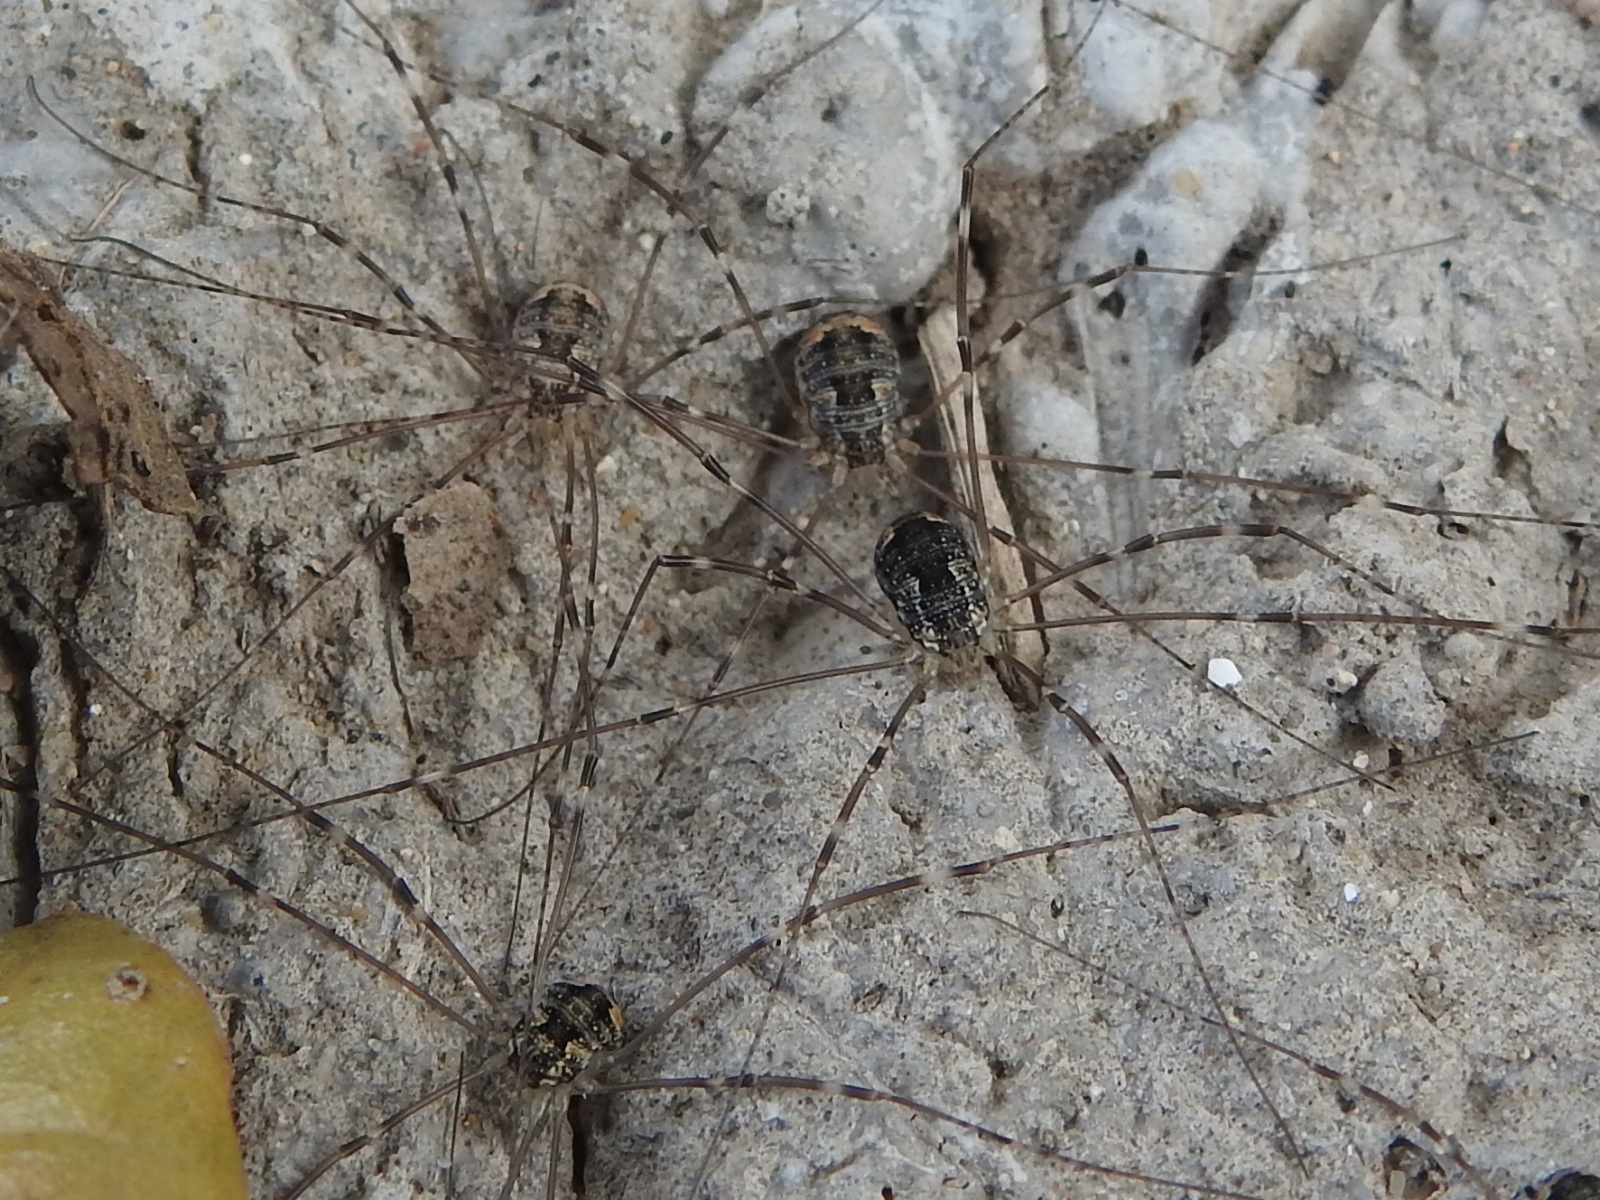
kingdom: Animalia
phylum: Arthropoda
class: Arachnida
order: Opiliones
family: Sclerosomatidae
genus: Leiobunum
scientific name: Leiobunum townsendi
